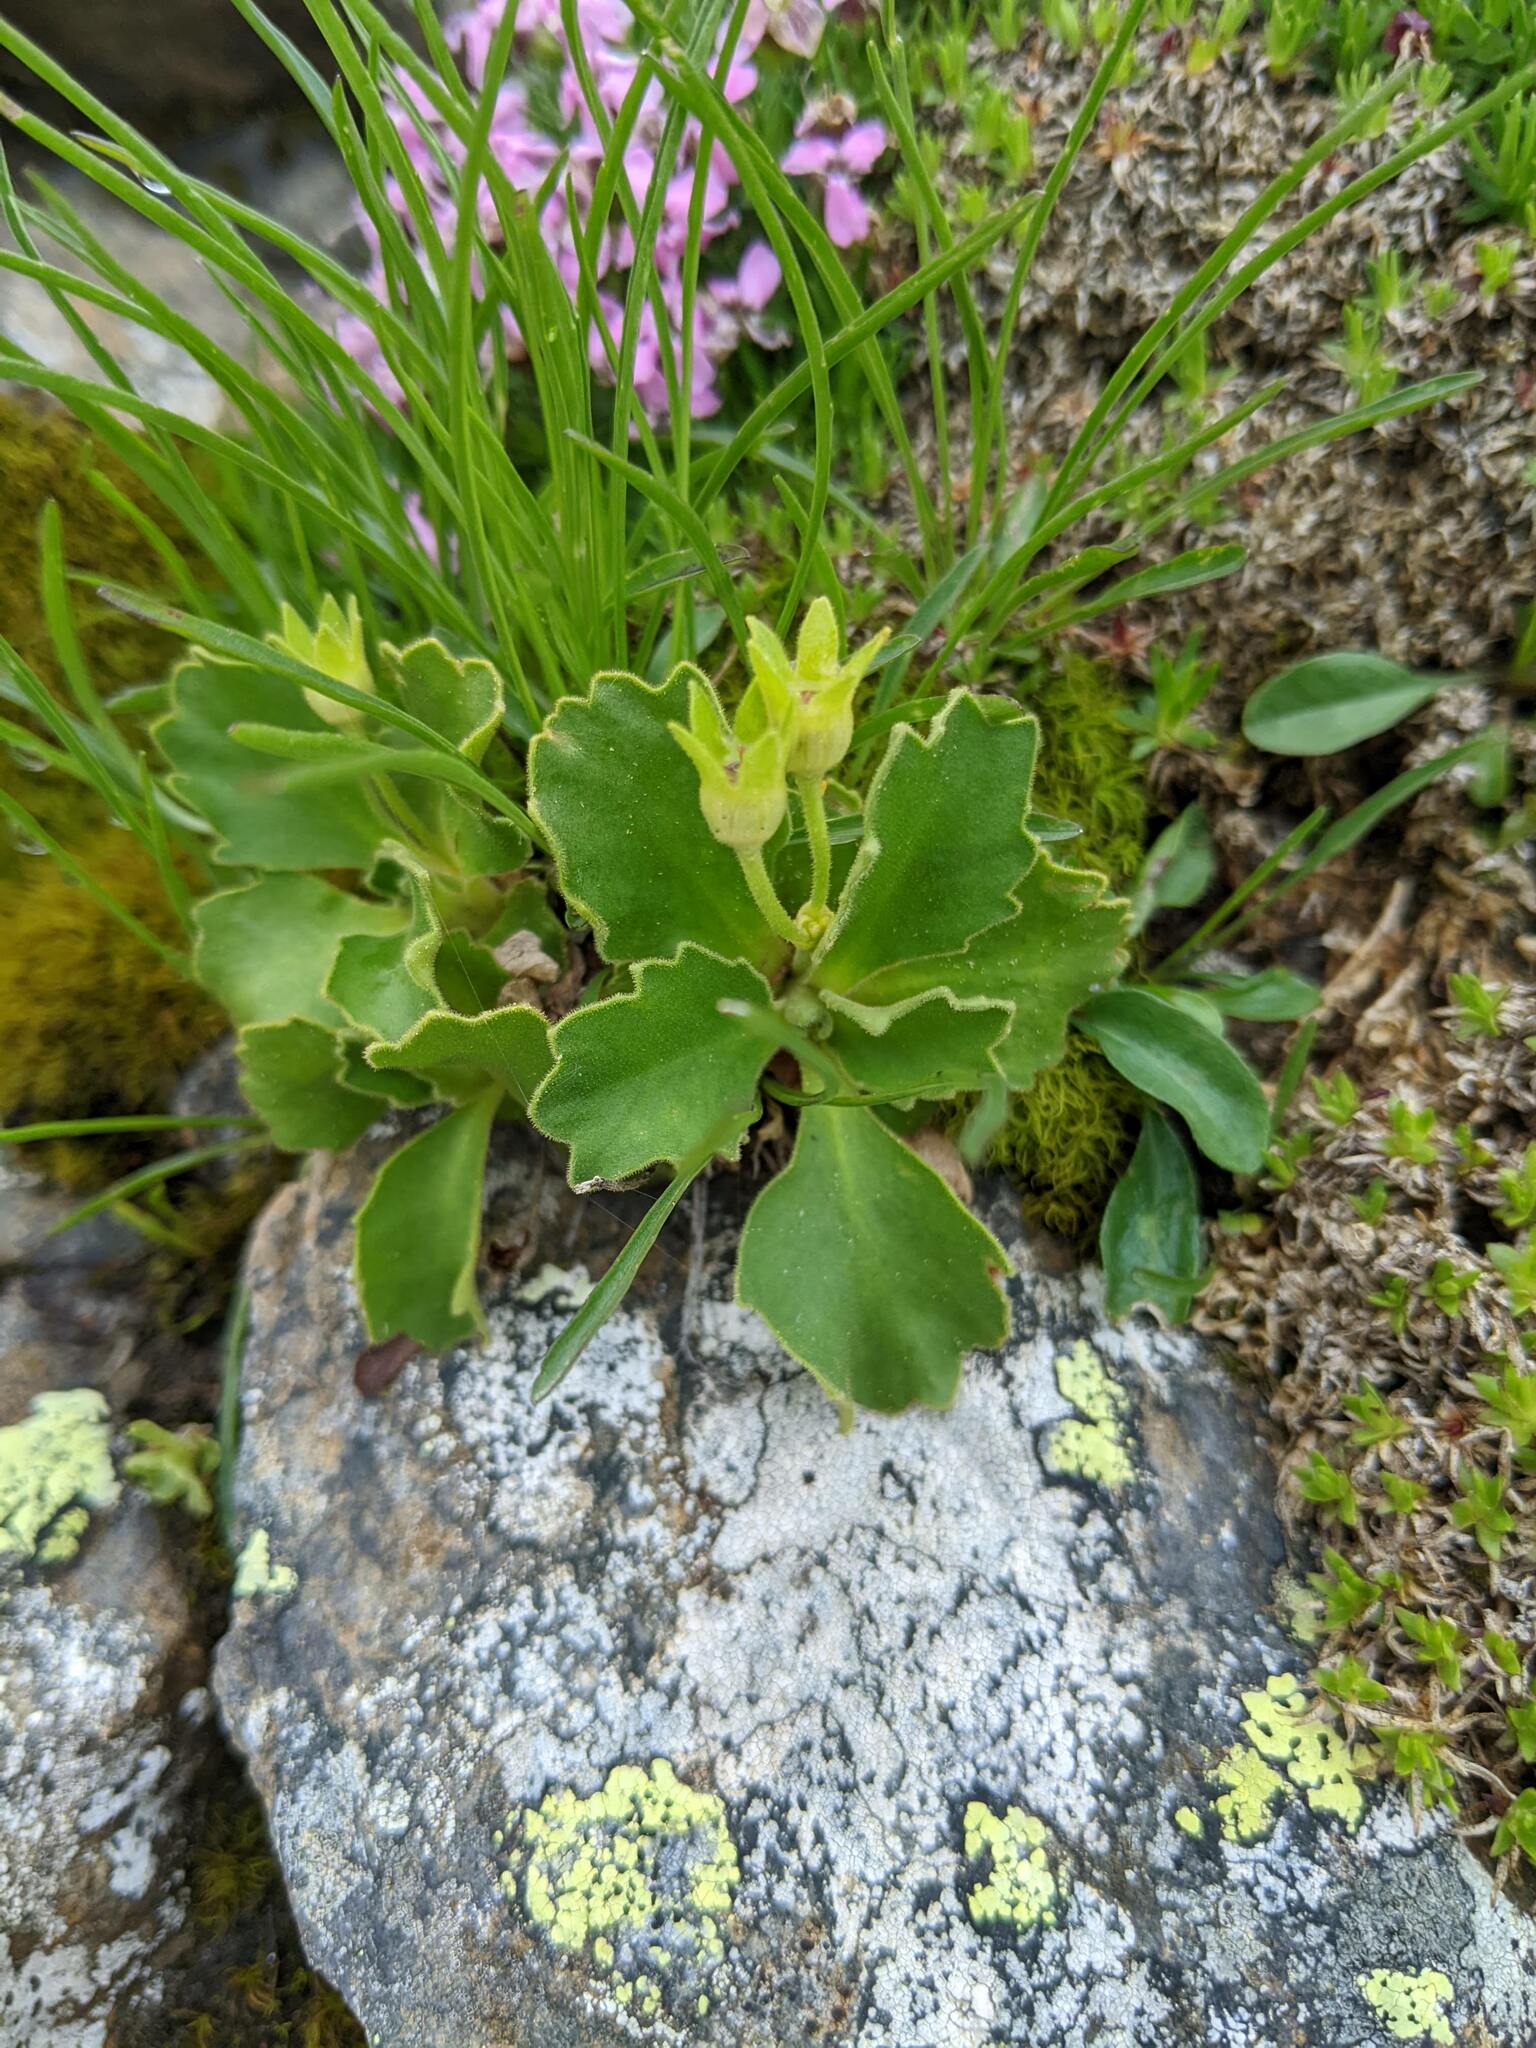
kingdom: Plantae
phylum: Tracheophyta
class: Magnoliopsida
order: Ericales
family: Primulaceae
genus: Primula
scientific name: Primula hirsuta
